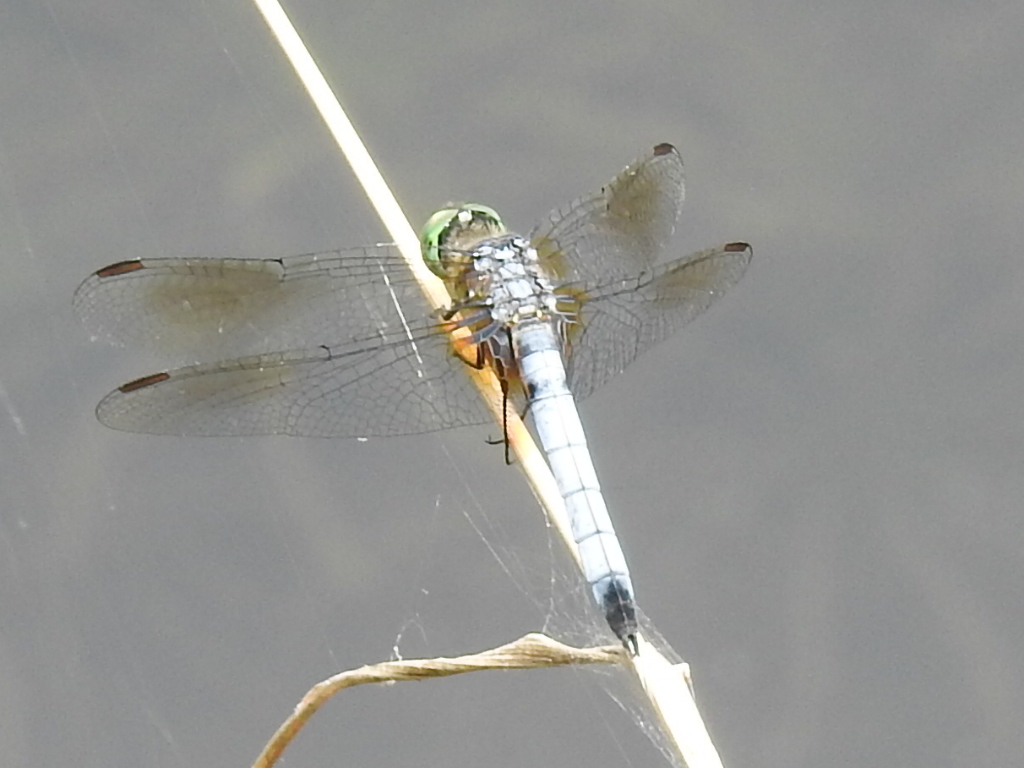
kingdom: Animalia
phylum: Arthropoda
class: Insecta
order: Odonata
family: Libellulidae
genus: Pachydiplax
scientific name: Pachydiplax longipennis
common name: Blue dasher
